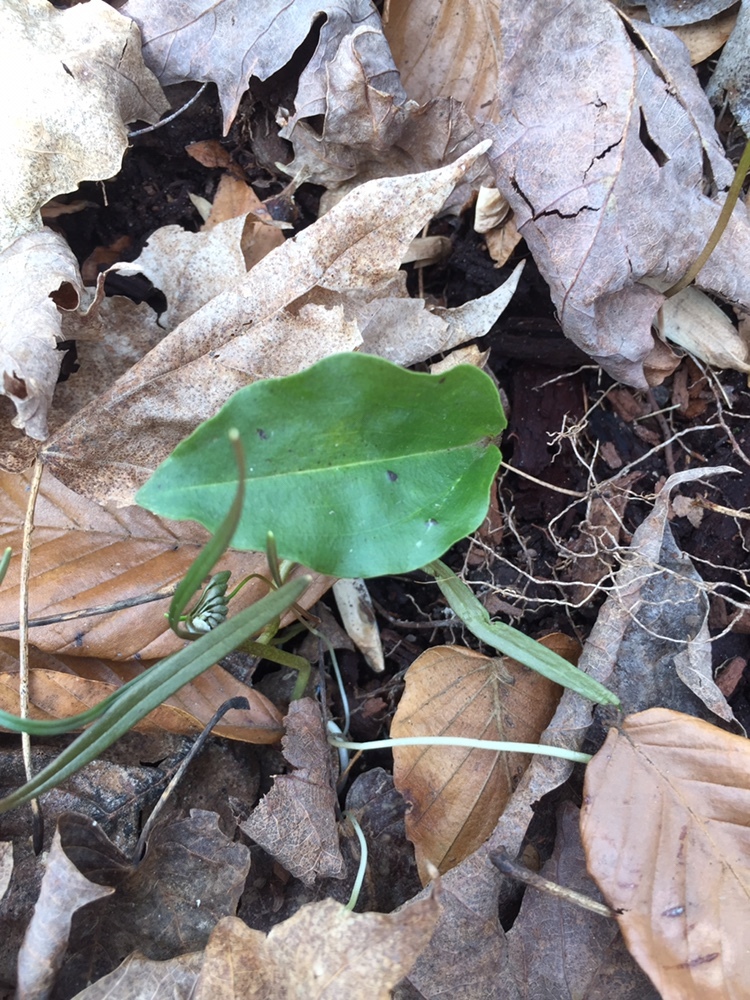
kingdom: Plantae
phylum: Tracheophyta
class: Liliopsida
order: Asparagales
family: Orchidaceae
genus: Tipularia
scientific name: Tipularia discolor
